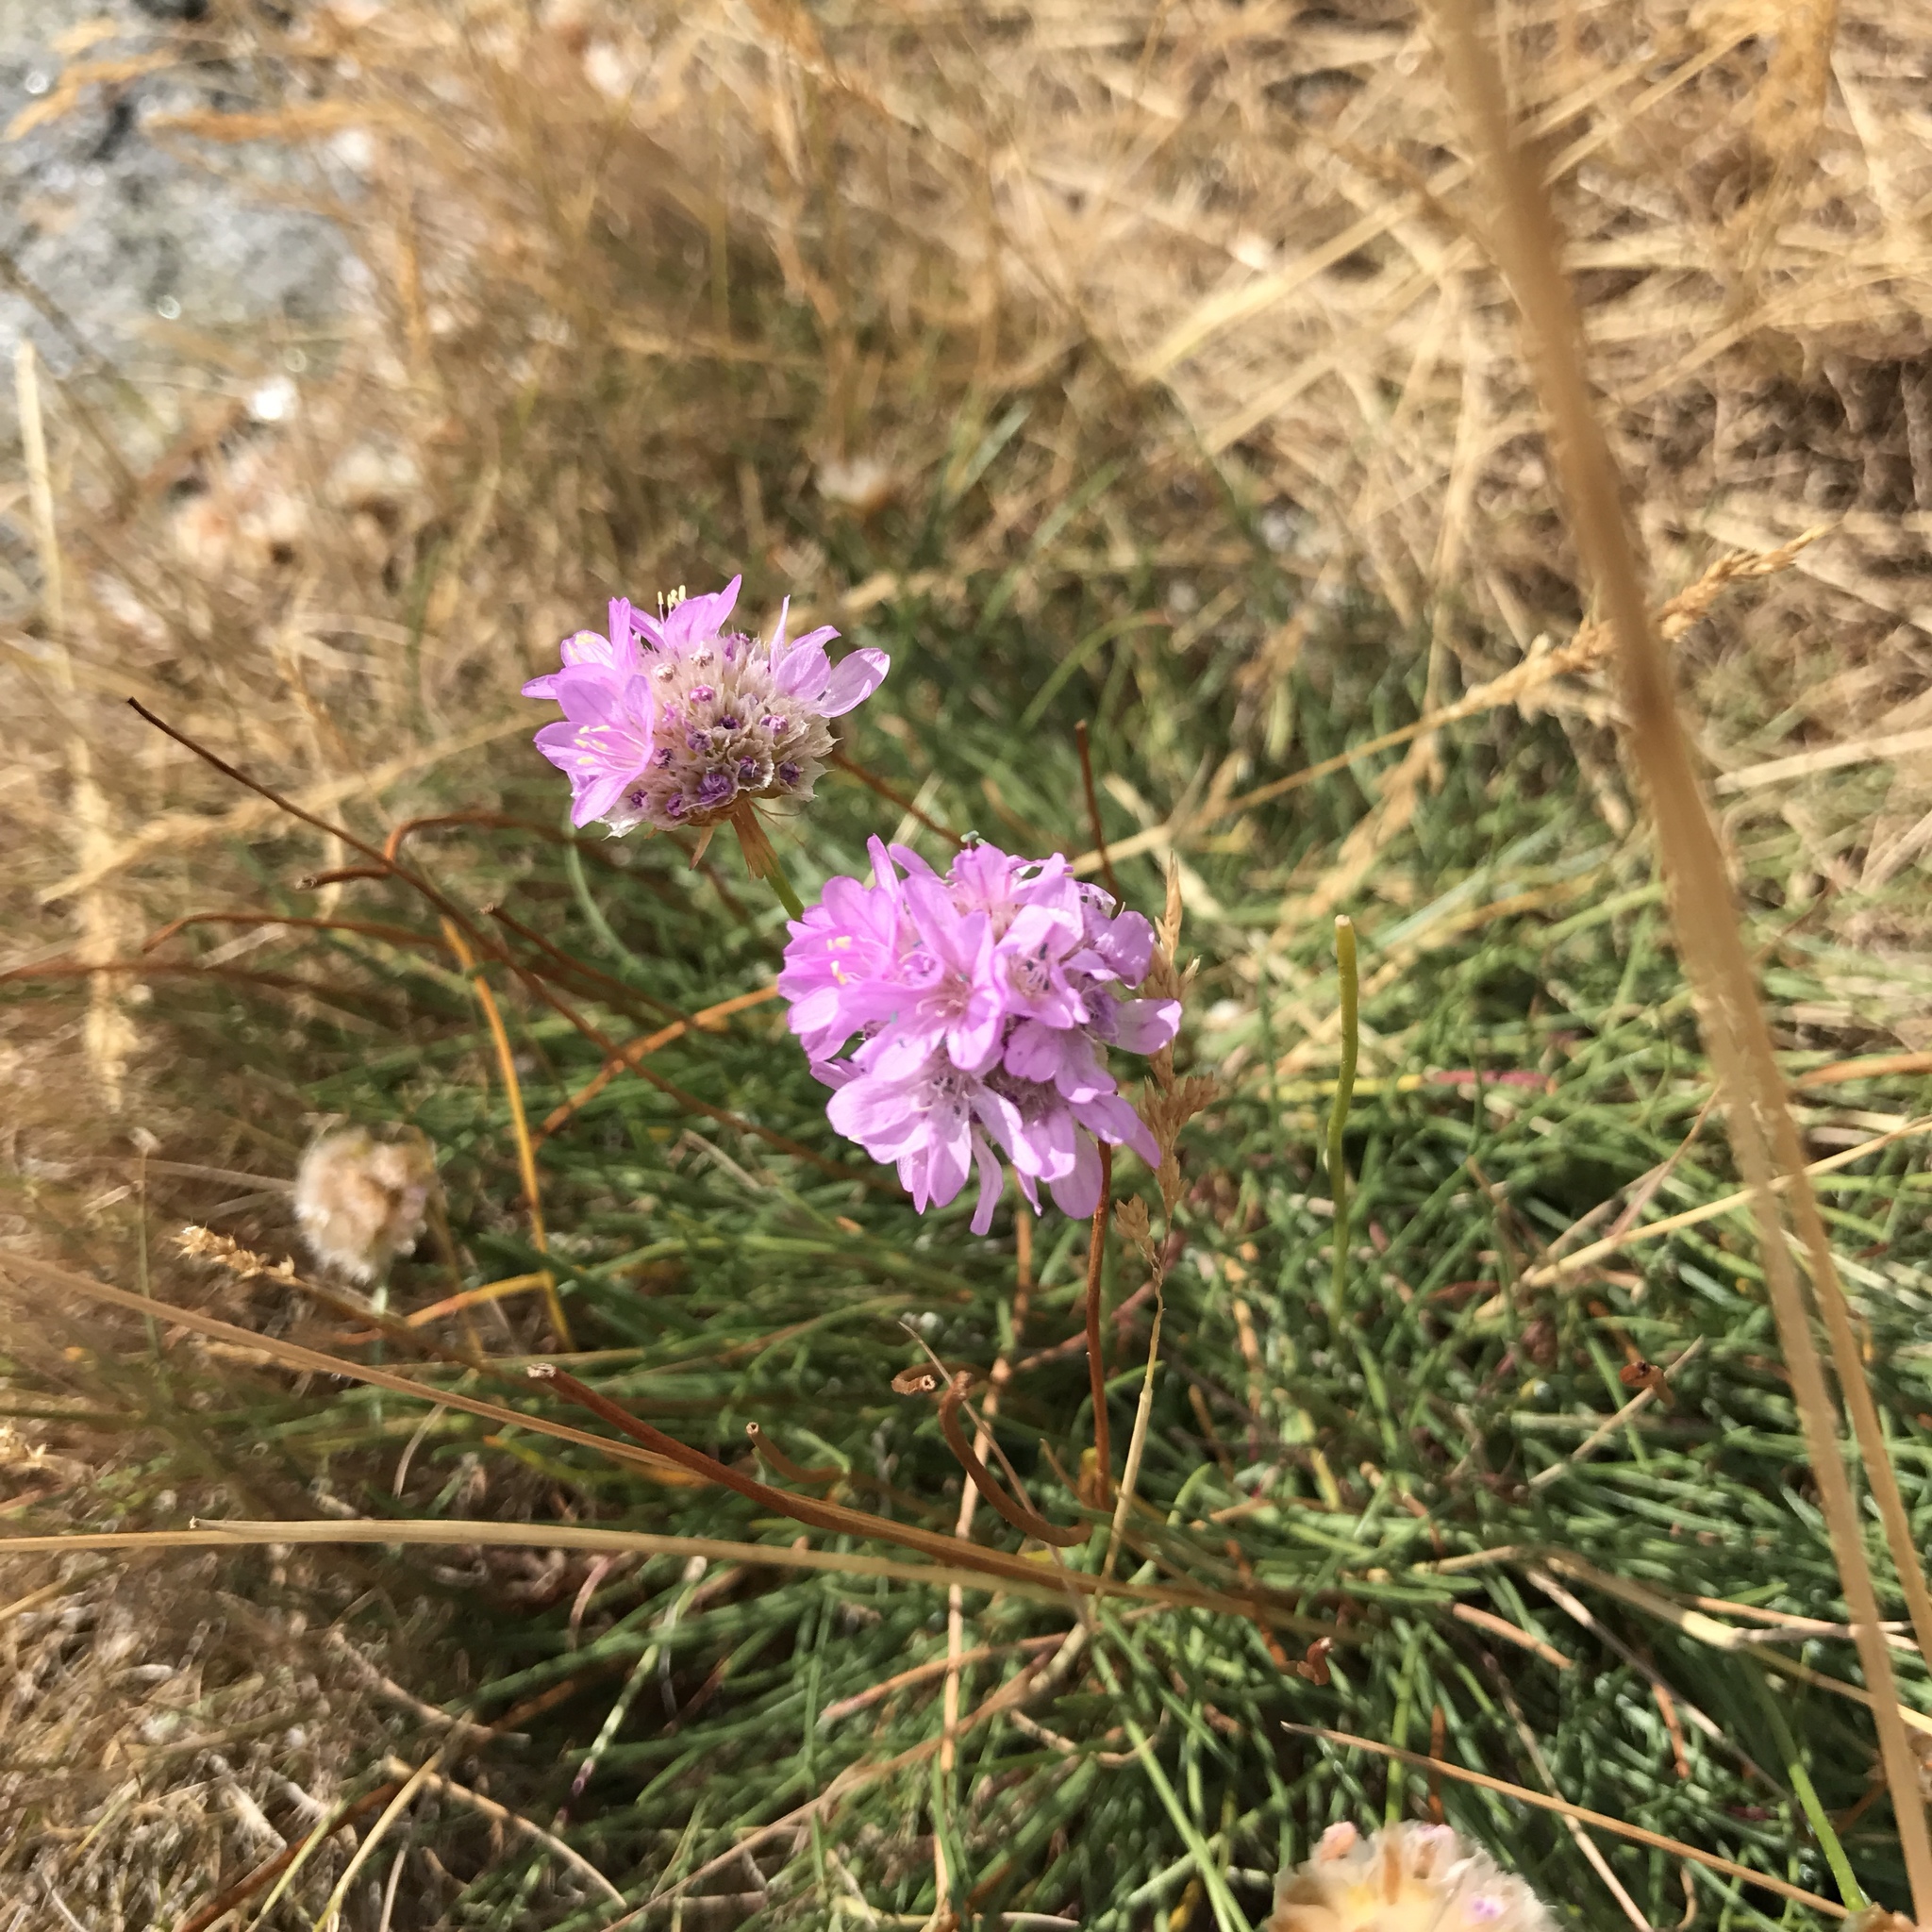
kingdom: Plantae
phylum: Tracheophyta
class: Magnoliopsida
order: Caryophyllales
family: Plumbaginaceae
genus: Armeria
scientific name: Armeria maritima
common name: Thrift
